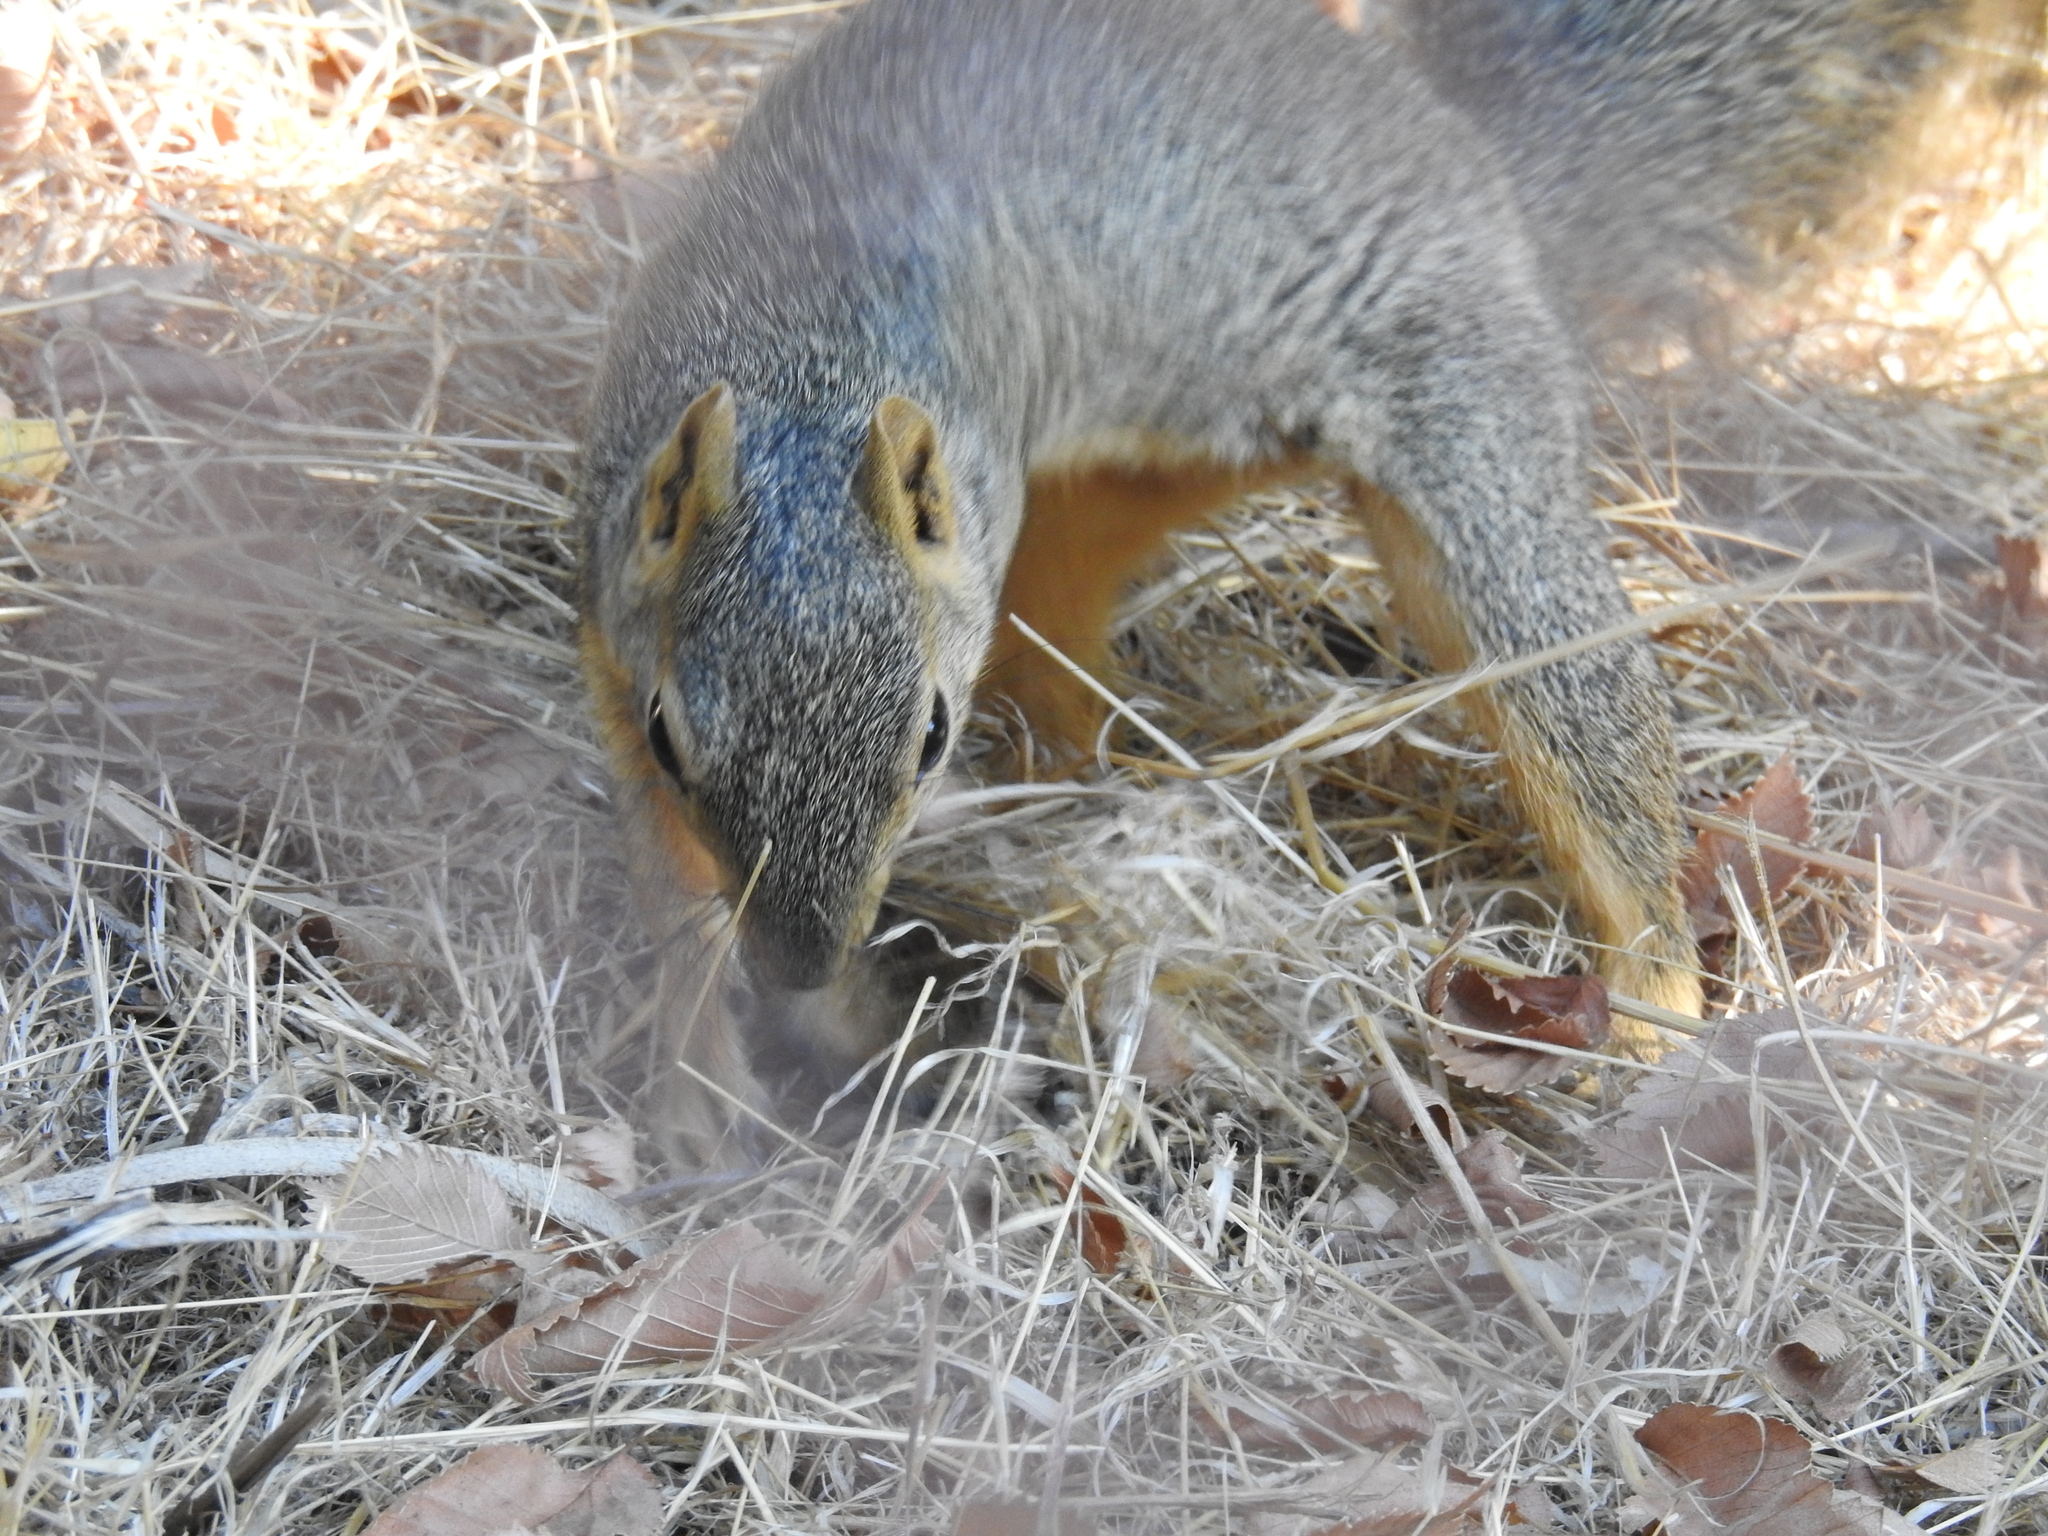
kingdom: Animalia
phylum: Chordata
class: Mammalia
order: Rodentia
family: Sciuridae
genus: Sciurus
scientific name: Sciurus niger
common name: Fox squirrel
